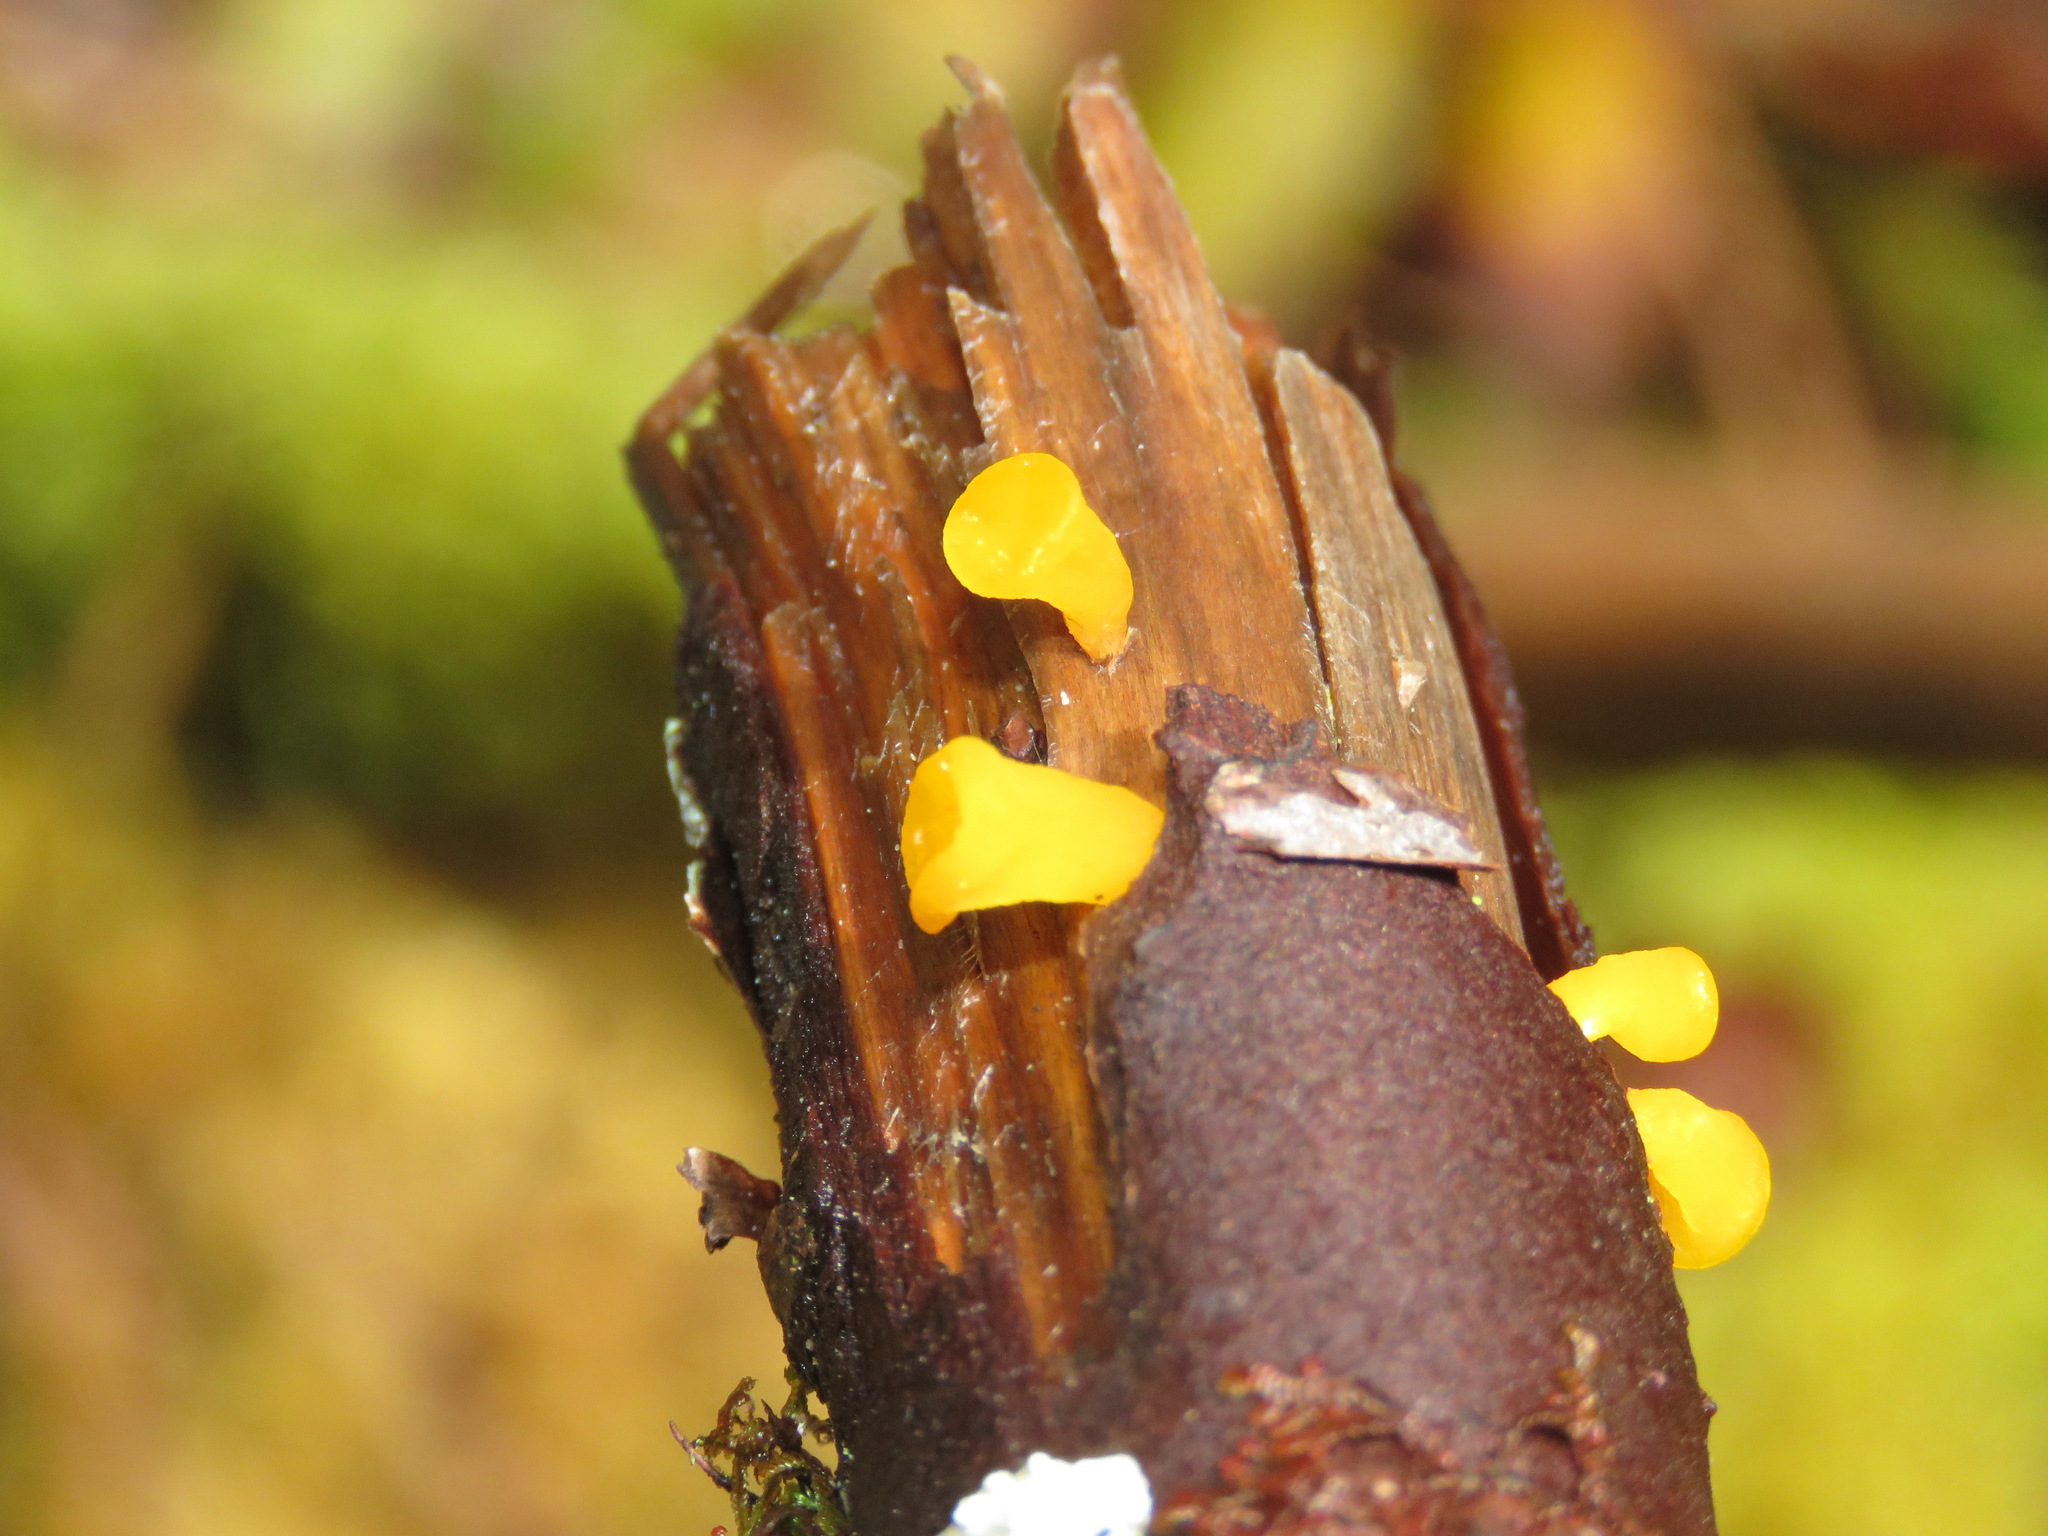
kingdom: Fungi
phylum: Basidiomycota
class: Dacrymycetes
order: Dacrymycetales
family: Dacrymycetaceae
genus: Guepiniopsis
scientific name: Guepiniopsis alpina
